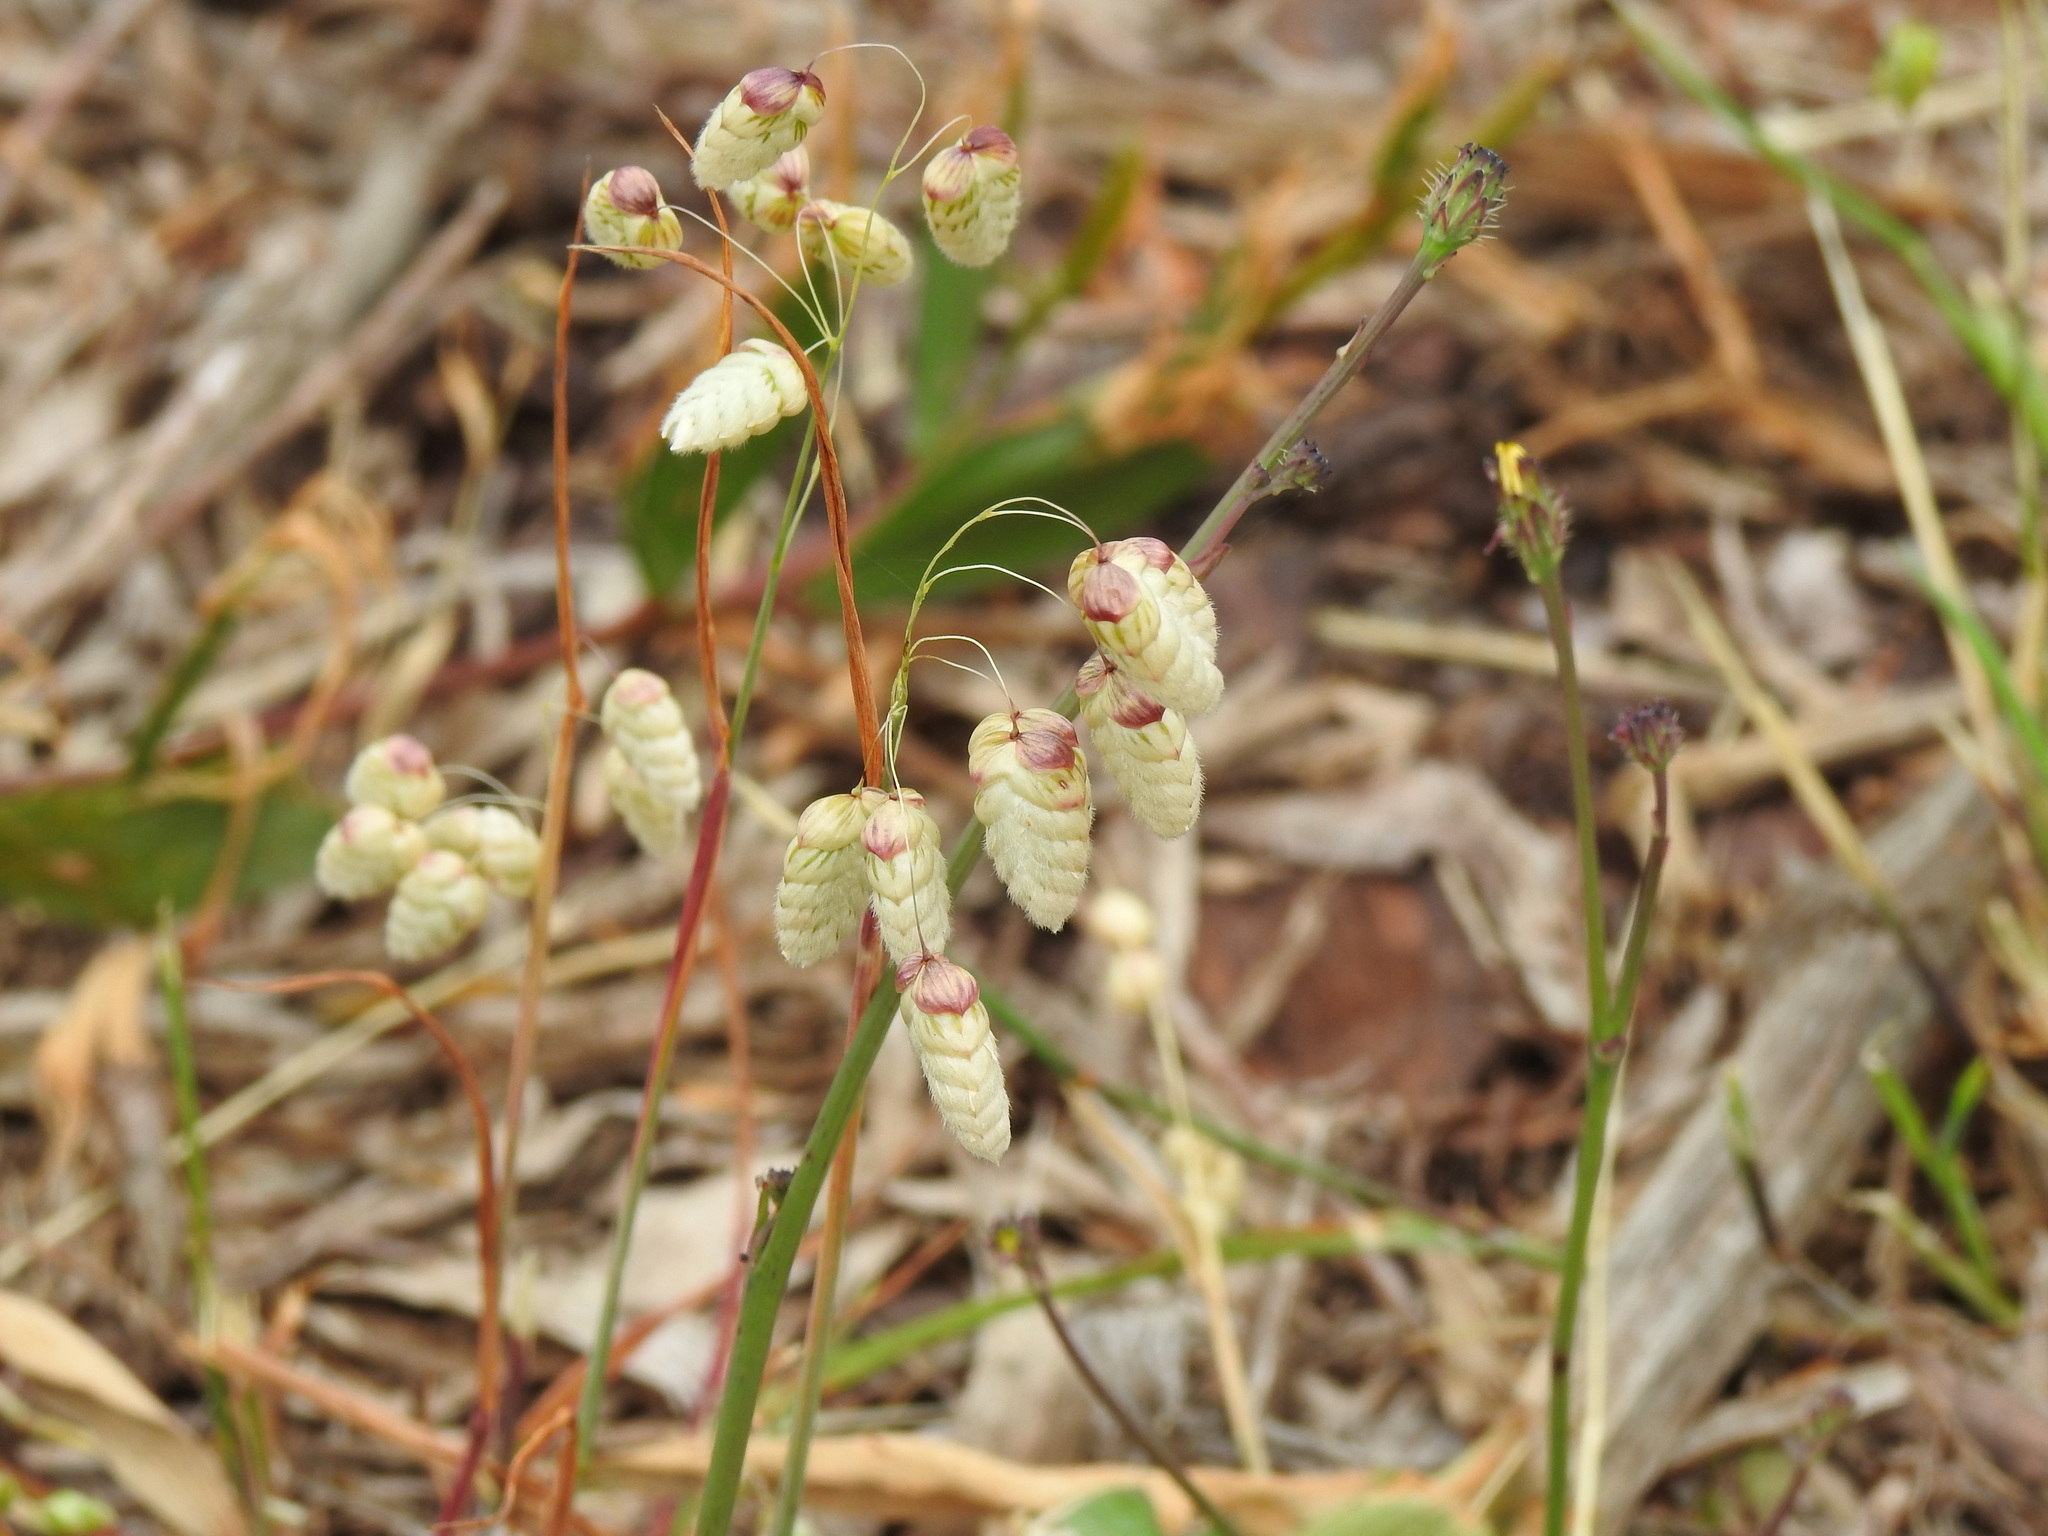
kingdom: Plantae
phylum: Tracheophyta
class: Liliopsida
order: Poales
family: Poaceae
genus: Briza
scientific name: Briza maxima
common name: Big quakinggrass
